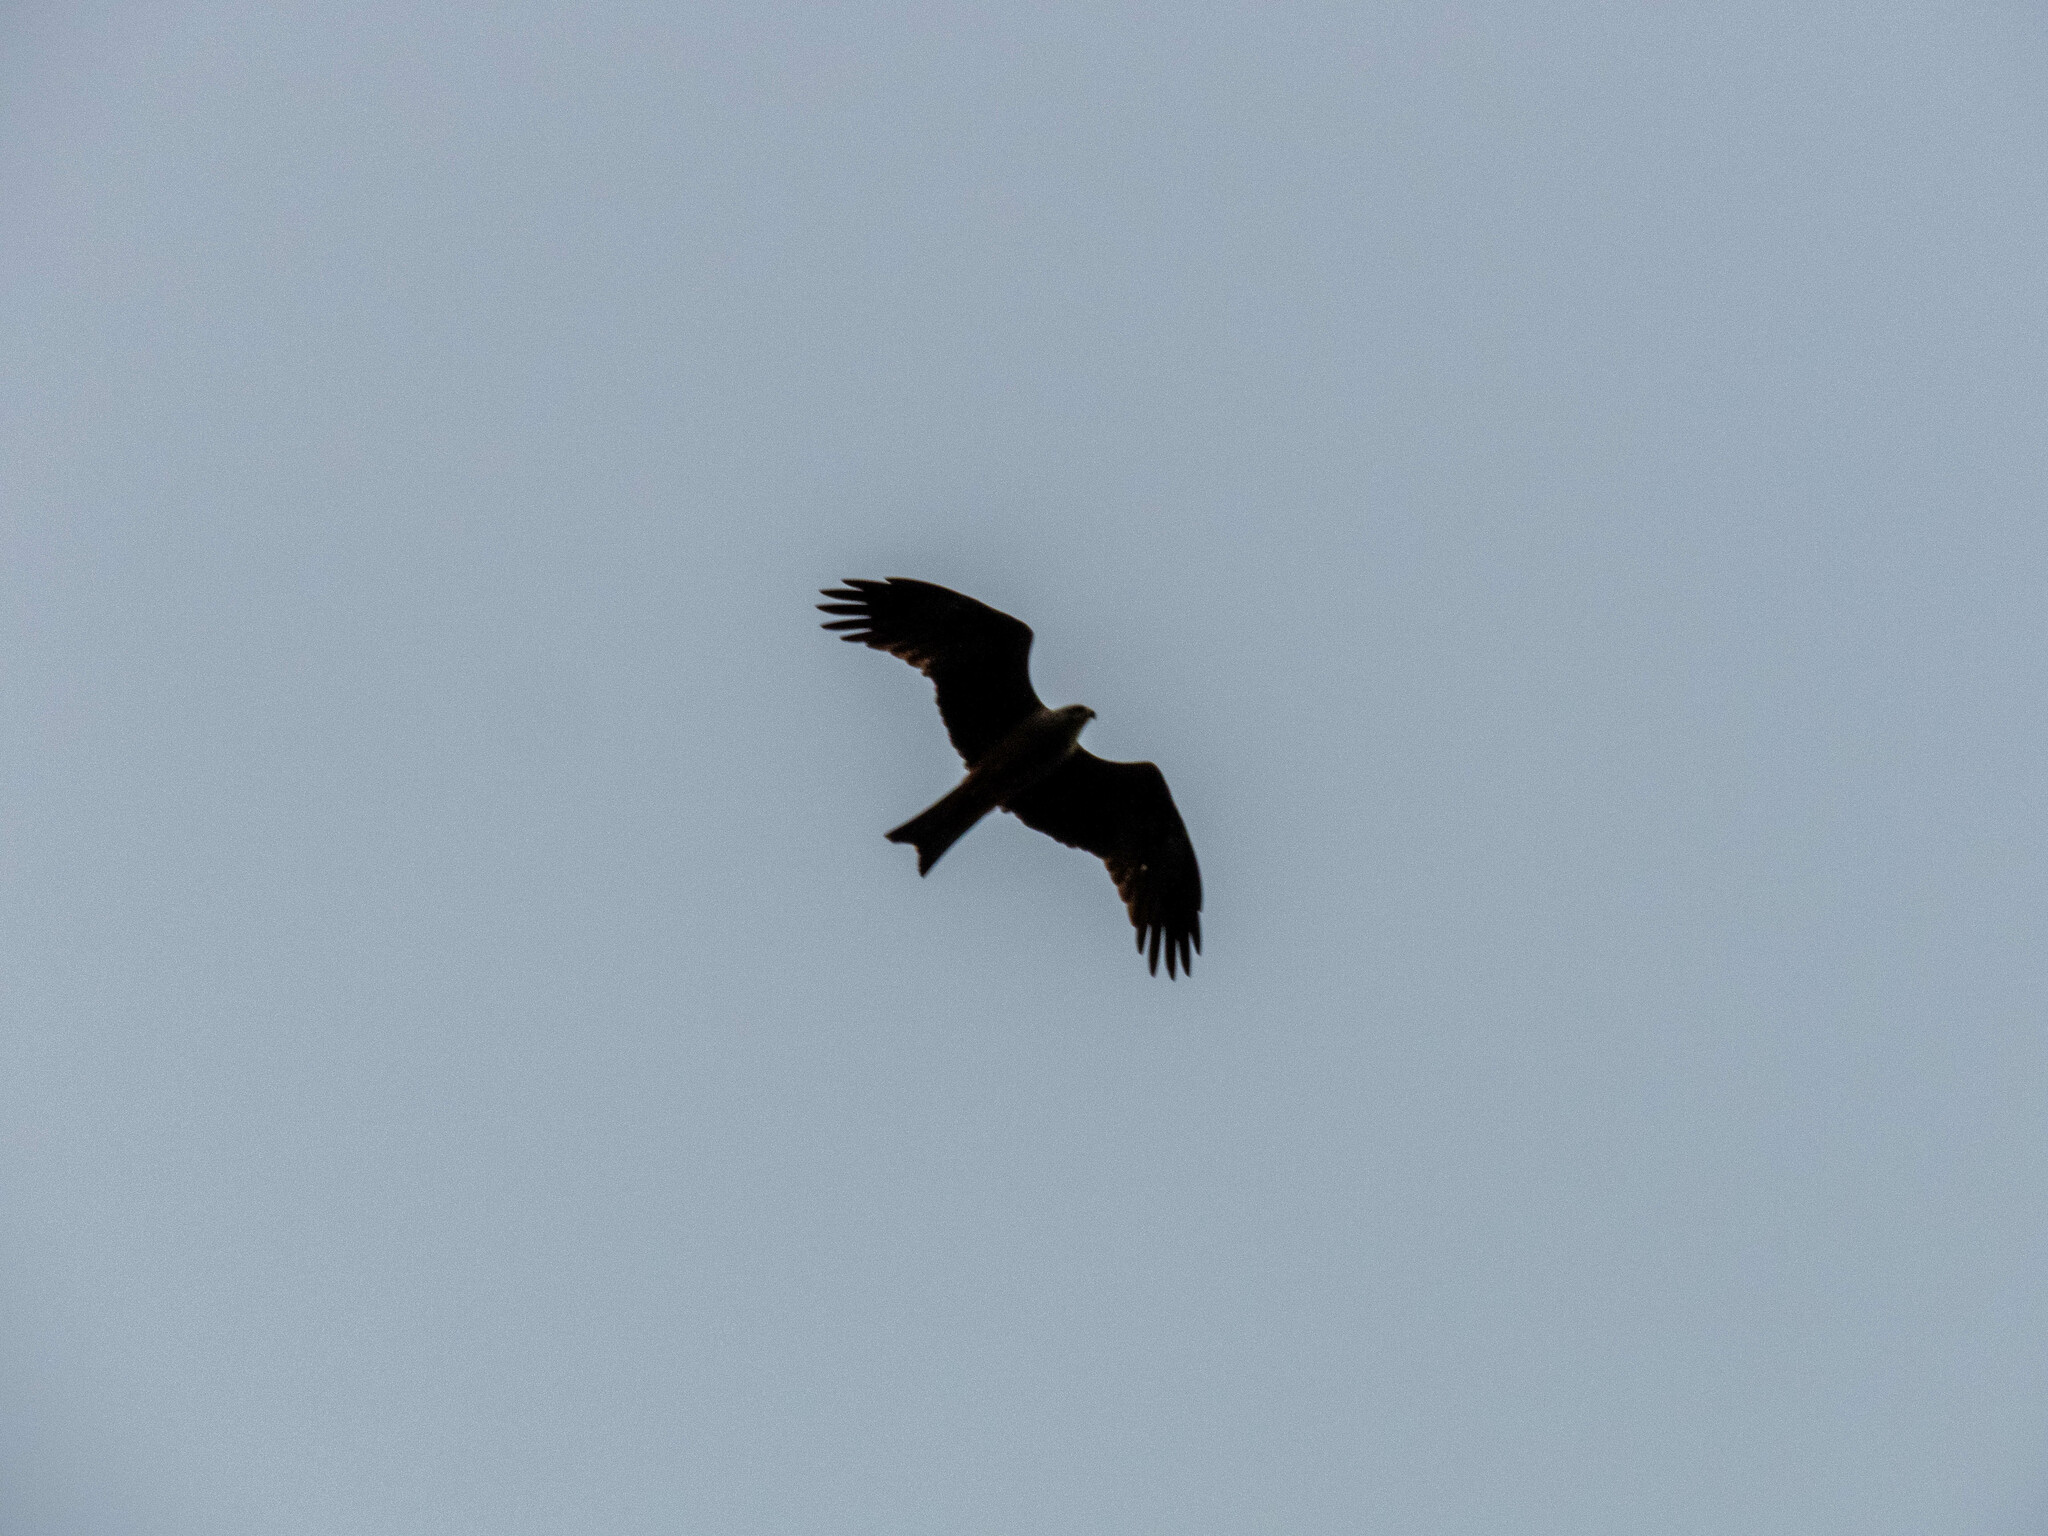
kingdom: Animalia
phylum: Chordata
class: Aves
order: Accipitriformes
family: Accipitridae
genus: Milvus
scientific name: Milvus migrans
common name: Black kite
